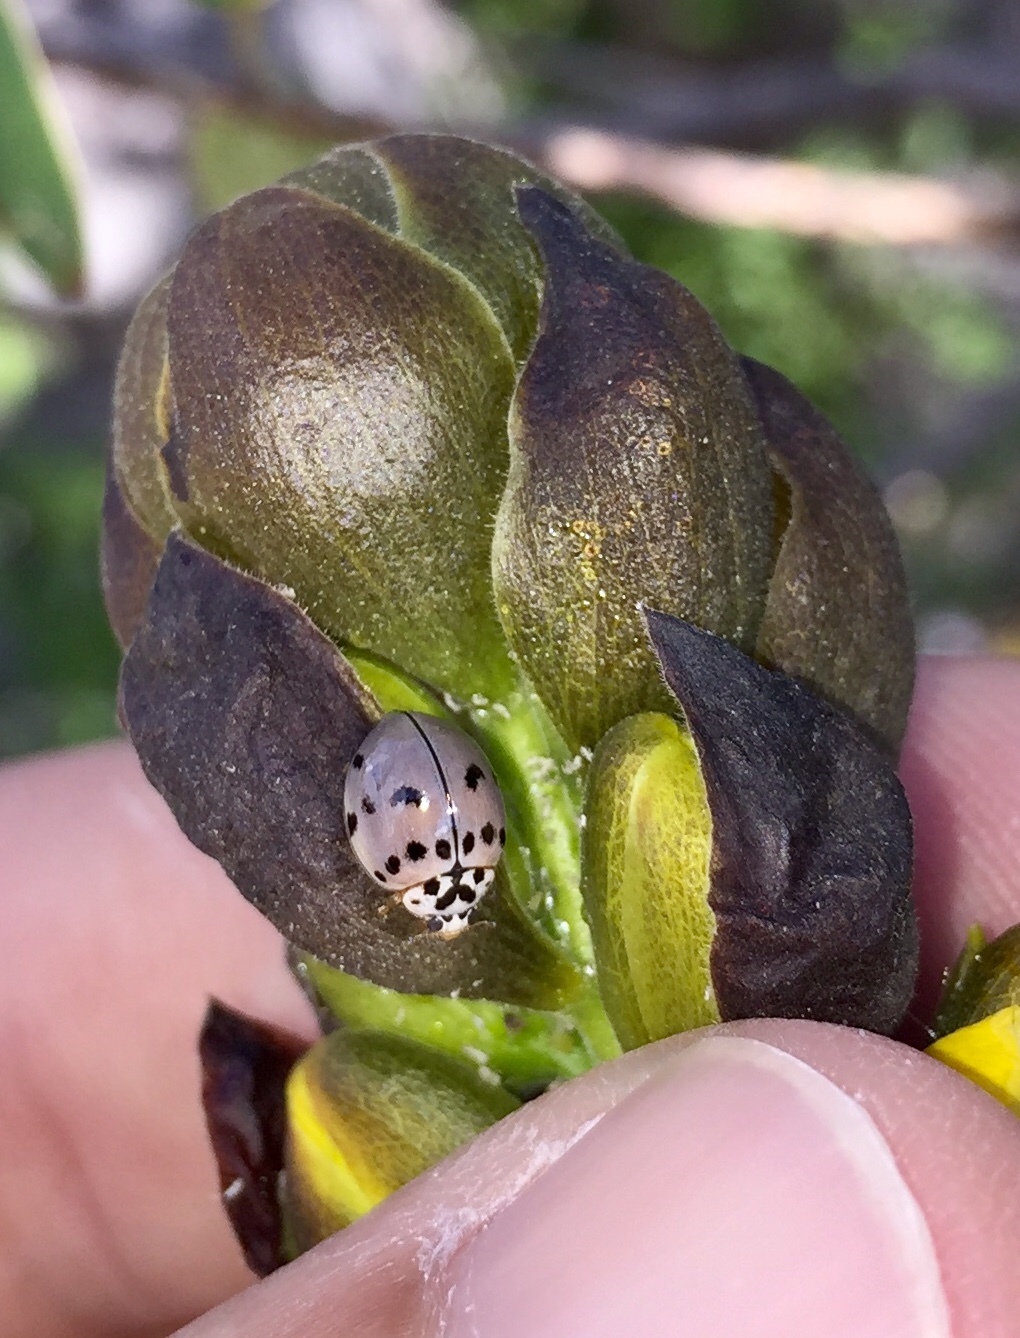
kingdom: Animalia
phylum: Arthropoda
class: Insecta
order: Coleoptera
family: Coccinellidae
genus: Olla
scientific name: Olla v-nigrum
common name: Ashy gray lady beetle
